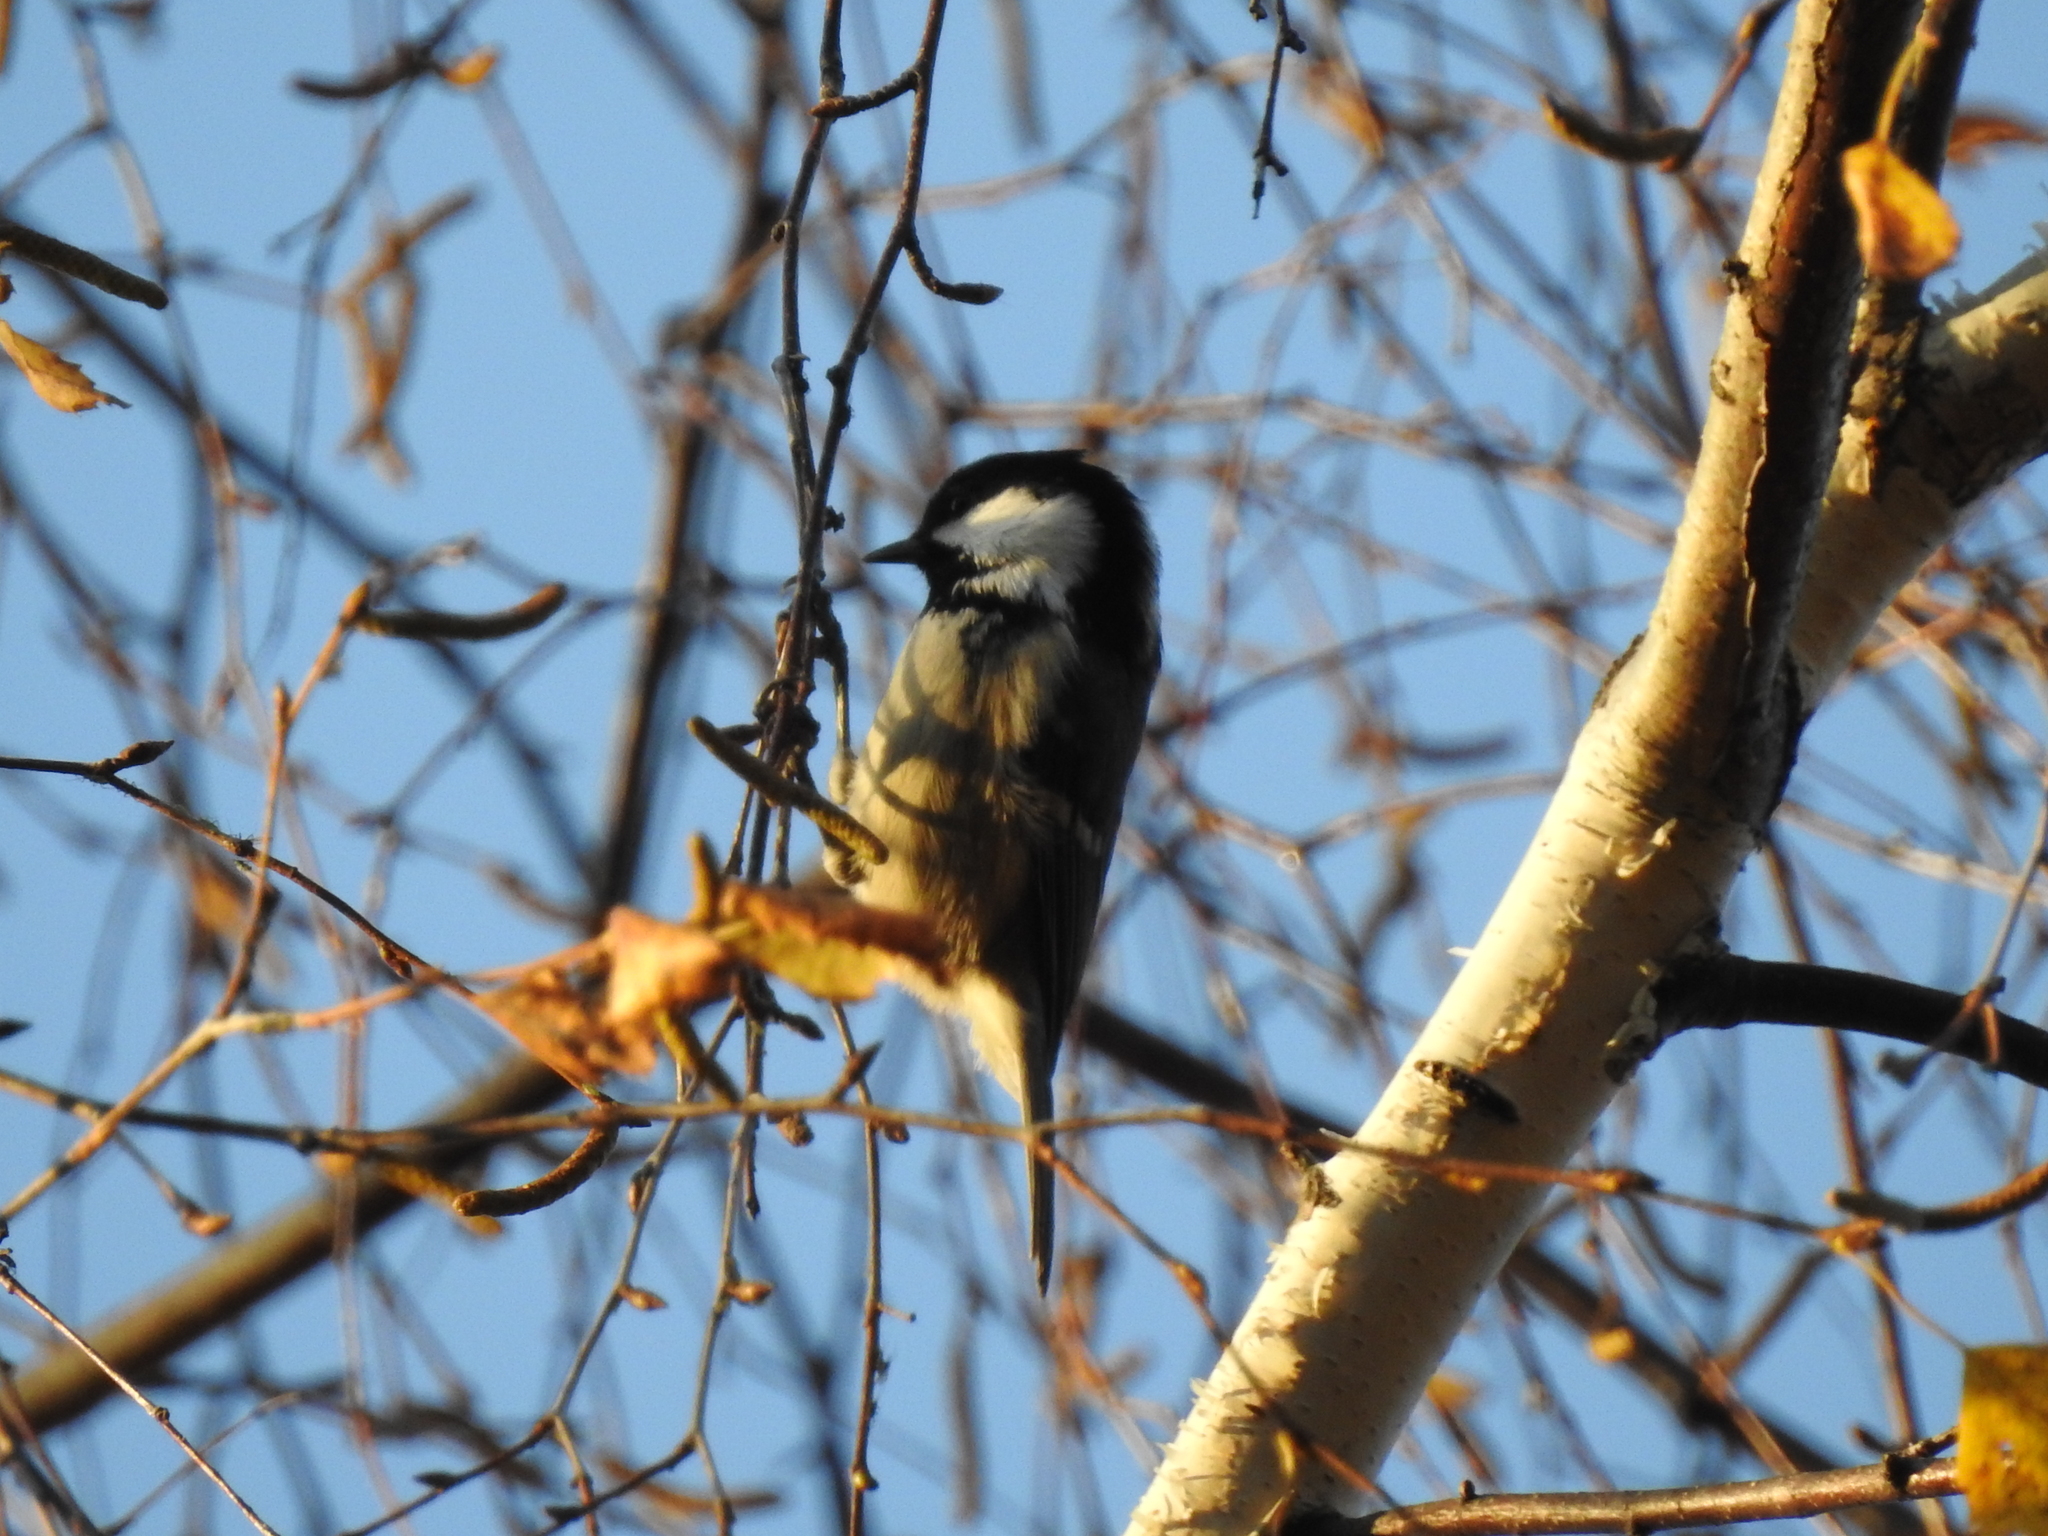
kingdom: Animalia
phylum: Chordata
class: Aves
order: Passeriformes
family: Paridae
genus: Periparus
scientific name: Periparus ater
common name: Coal tit
